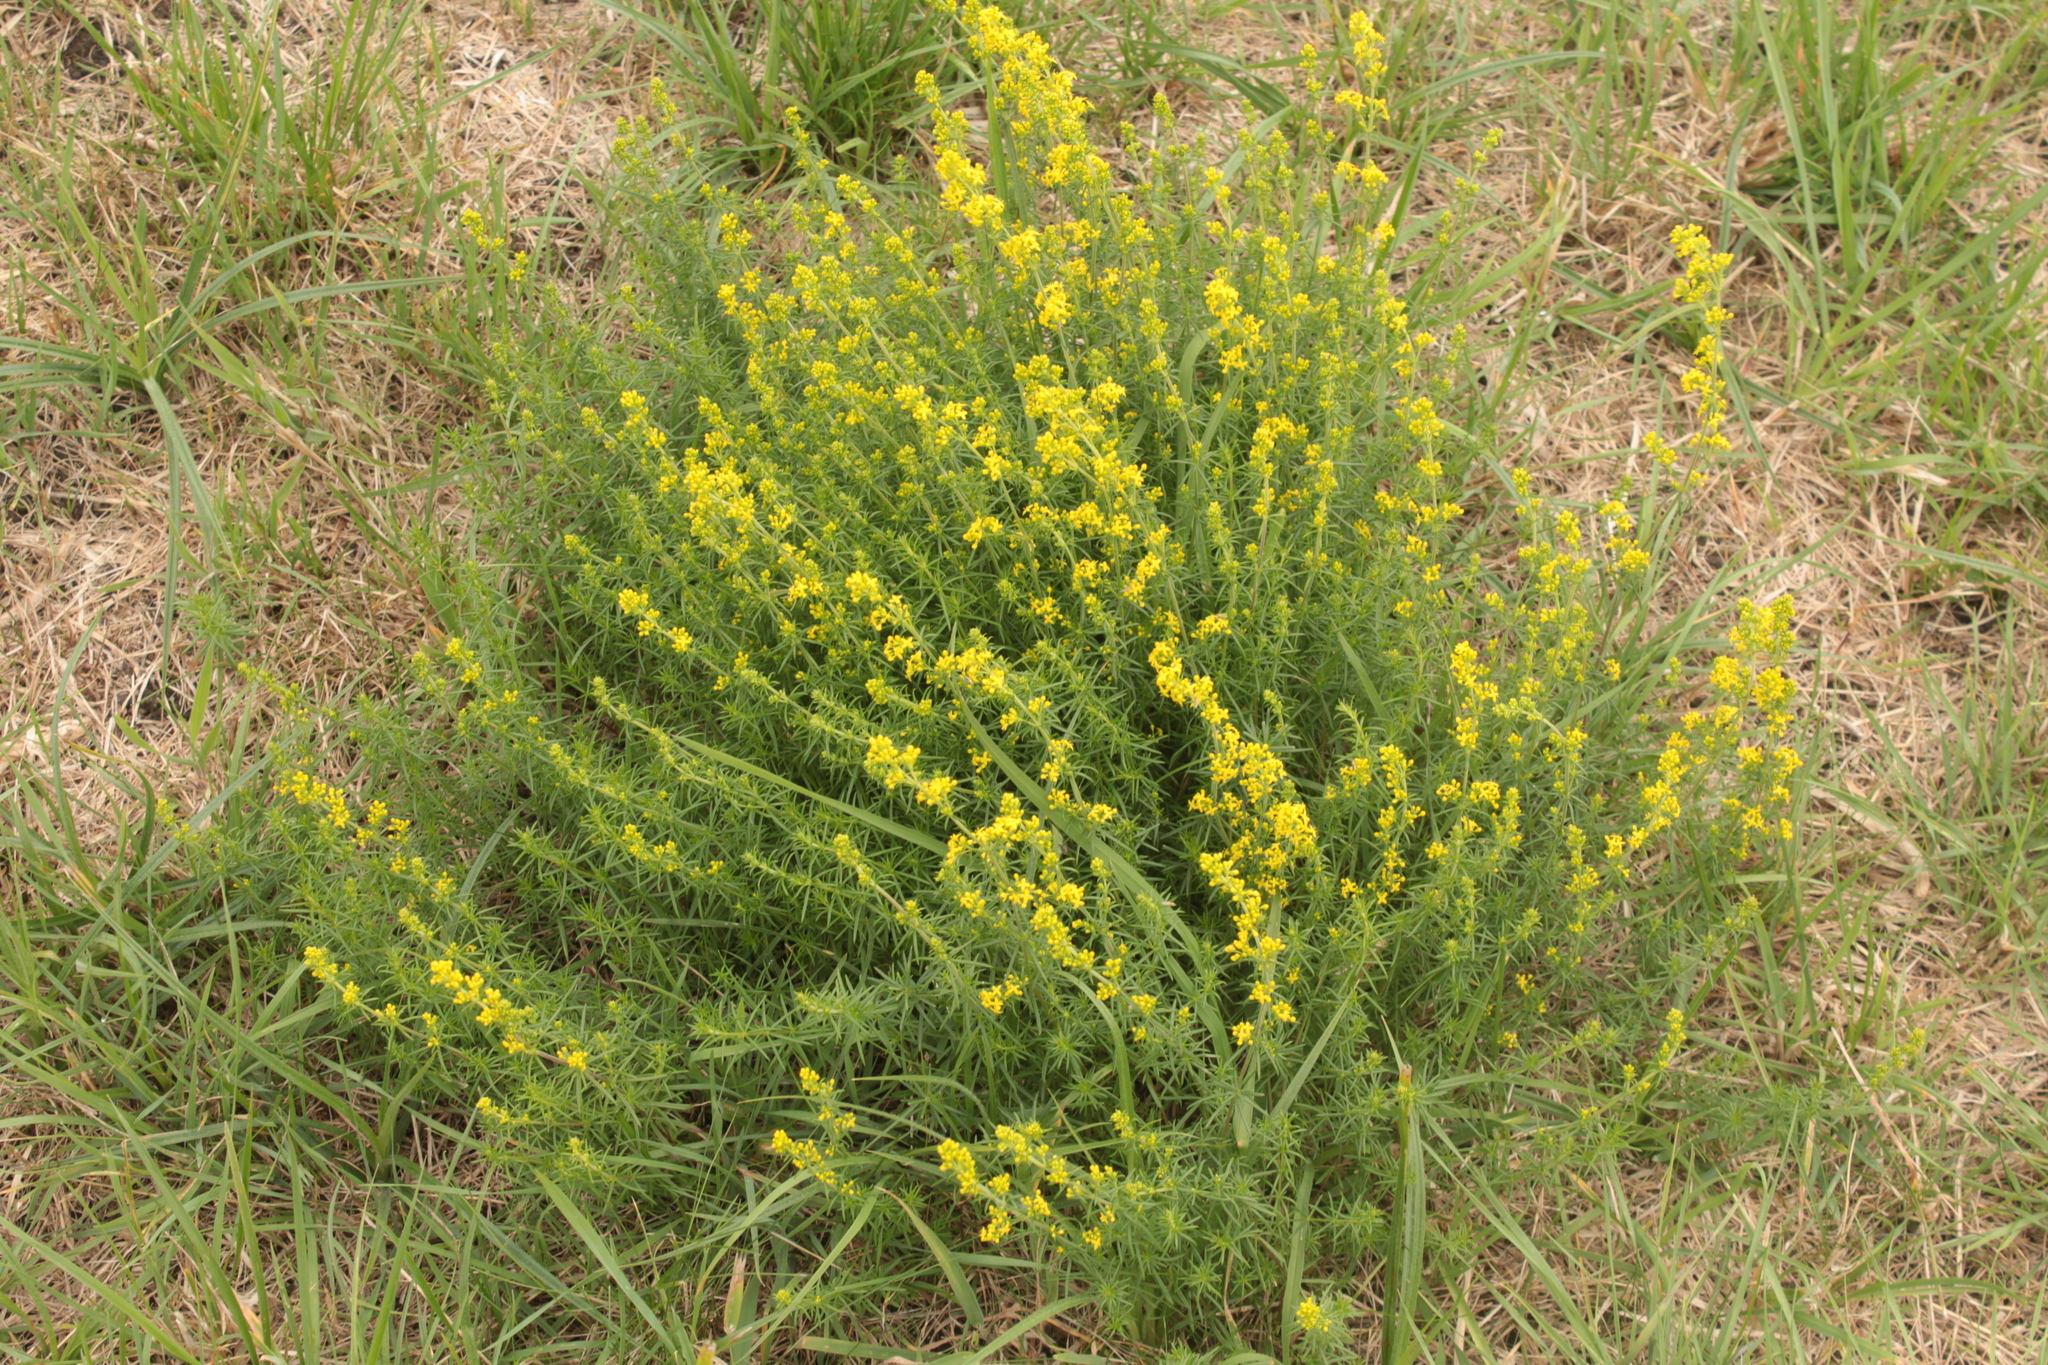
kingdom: Plantae
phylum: Tracheophyta
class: Magnoliopsida
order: Gentianales
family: Rubiaceae
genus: Galium
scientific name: Galium verum
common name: Lady's bedstraw
